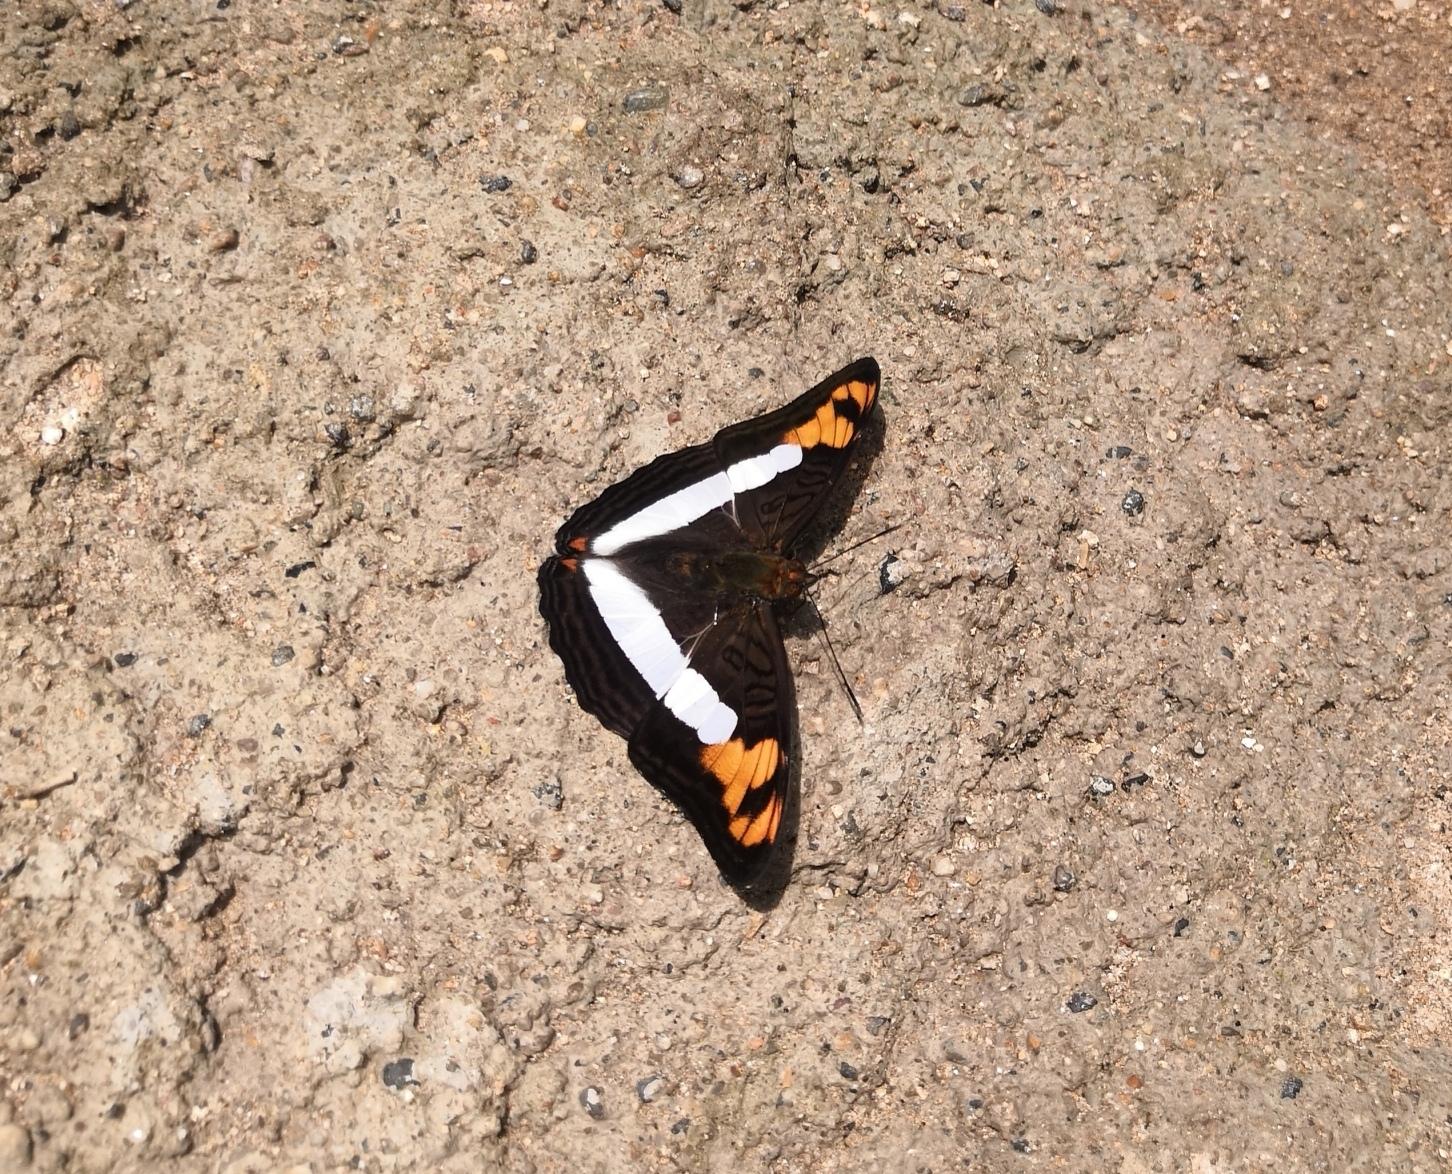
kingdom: Animalia
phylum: Arthropoda
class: Insecta
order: Lepidoptera
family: Nymphalidae
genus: Limenitis
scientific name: Limenitis phylaca
